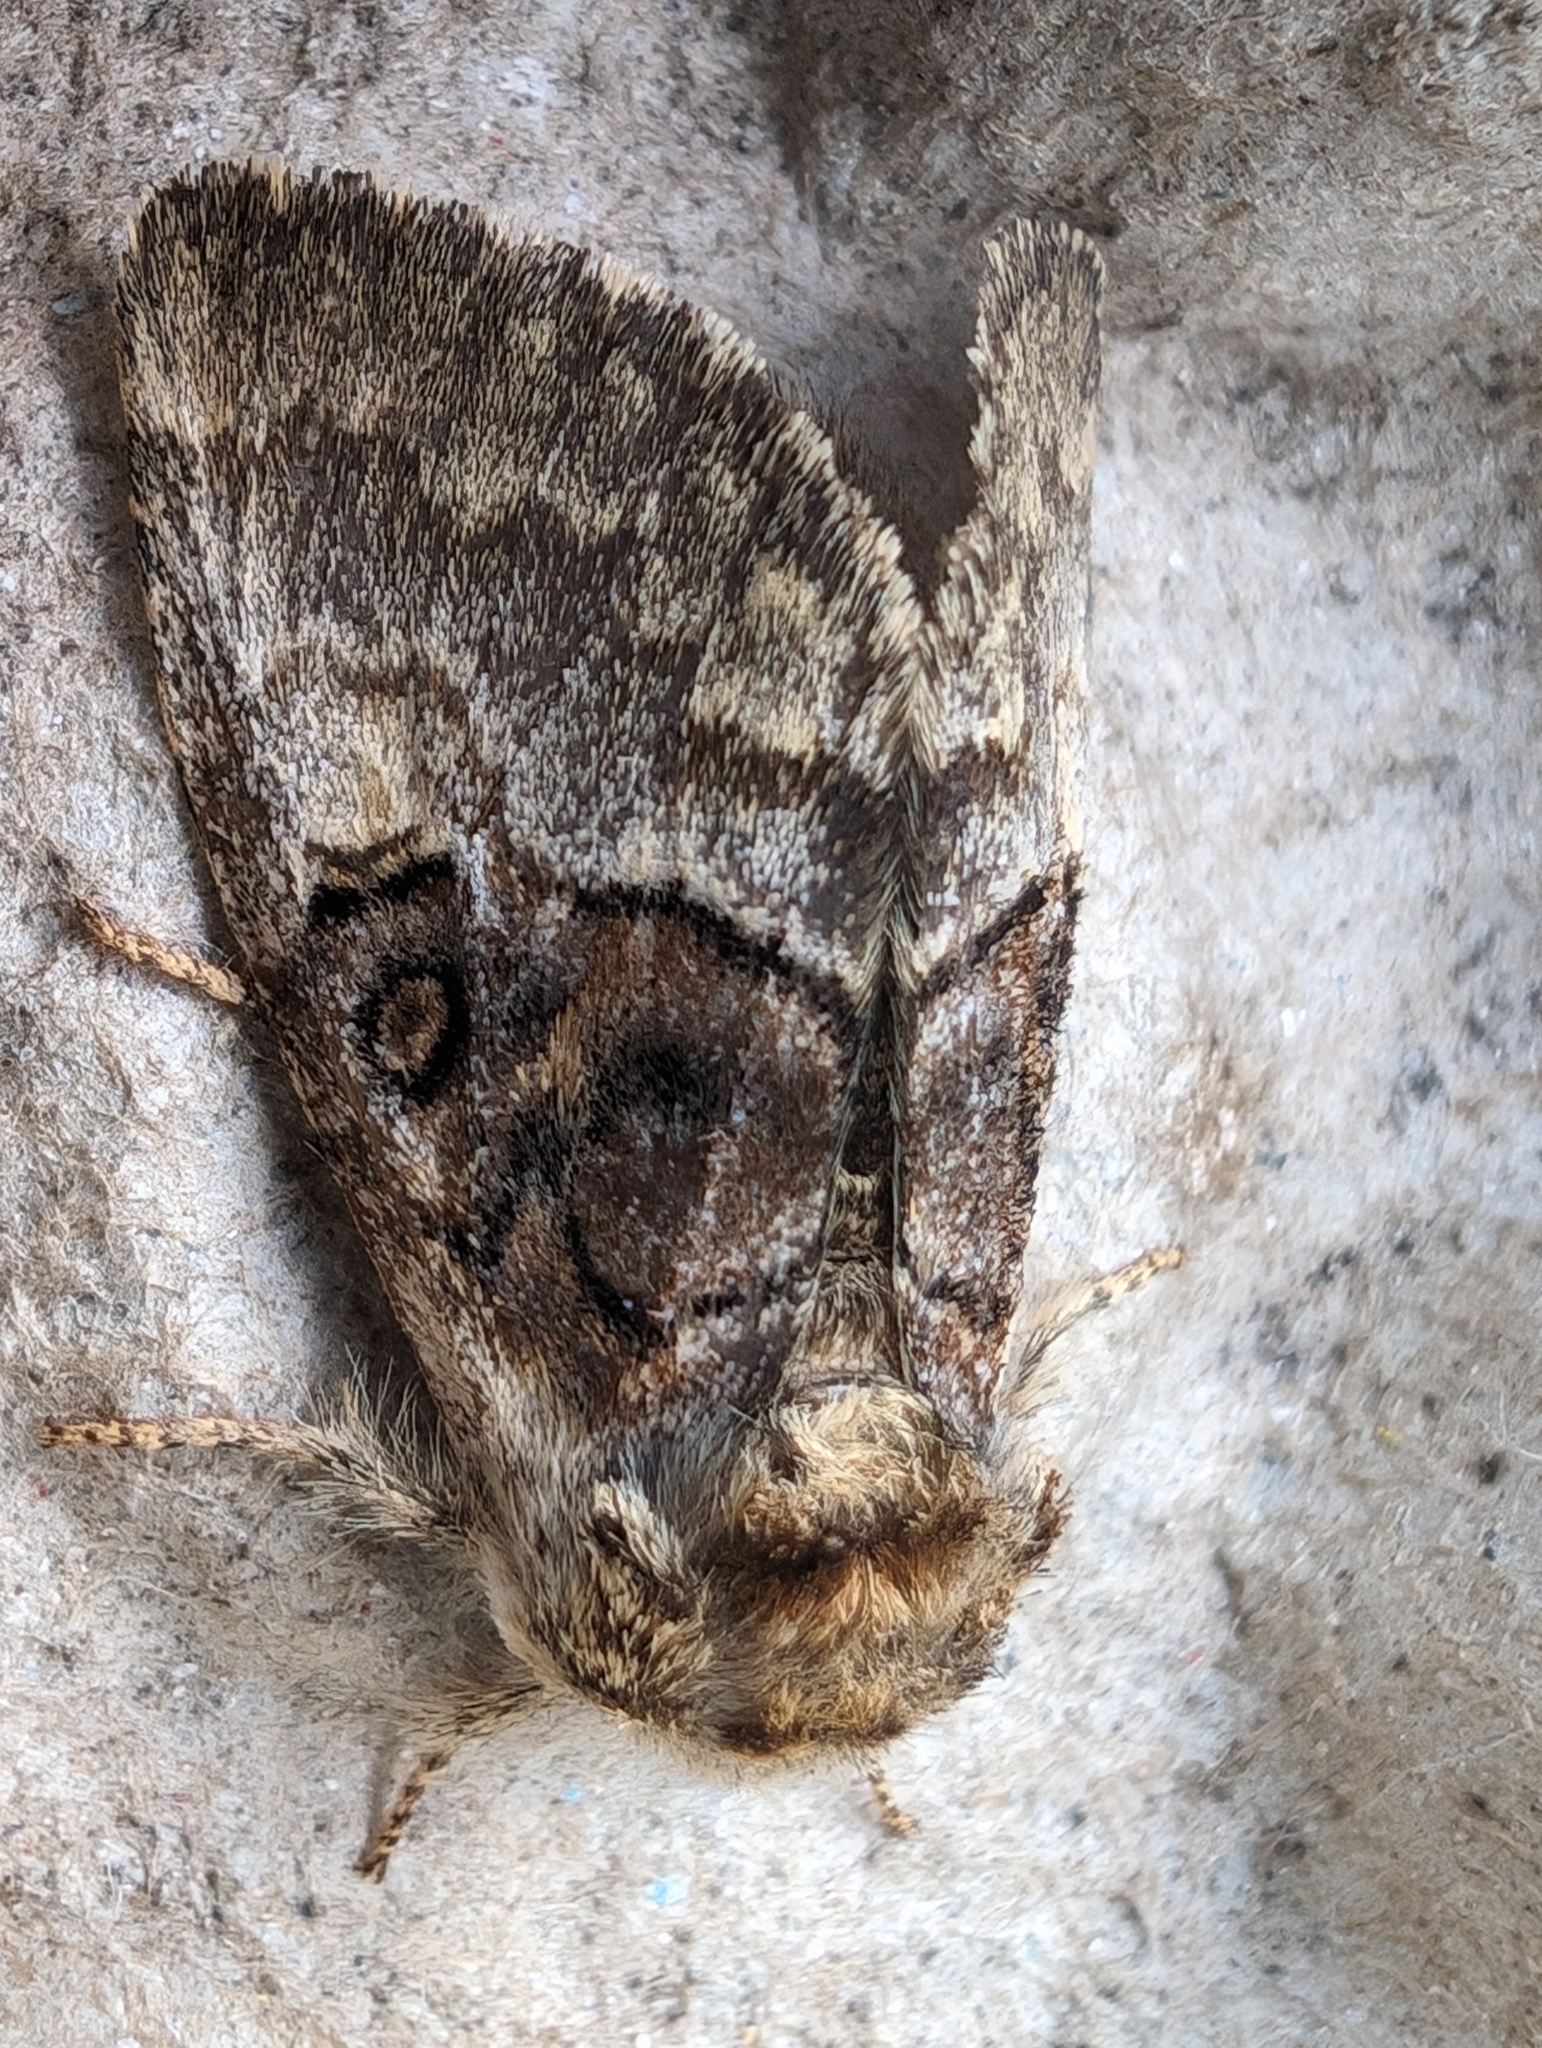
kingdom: Animalia
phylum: Arthropoda
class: Insecta
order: Lepidoptera
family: Noctuidae
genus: Colocasia
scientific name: Colocasia coryli
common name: Nut-tree tussock
